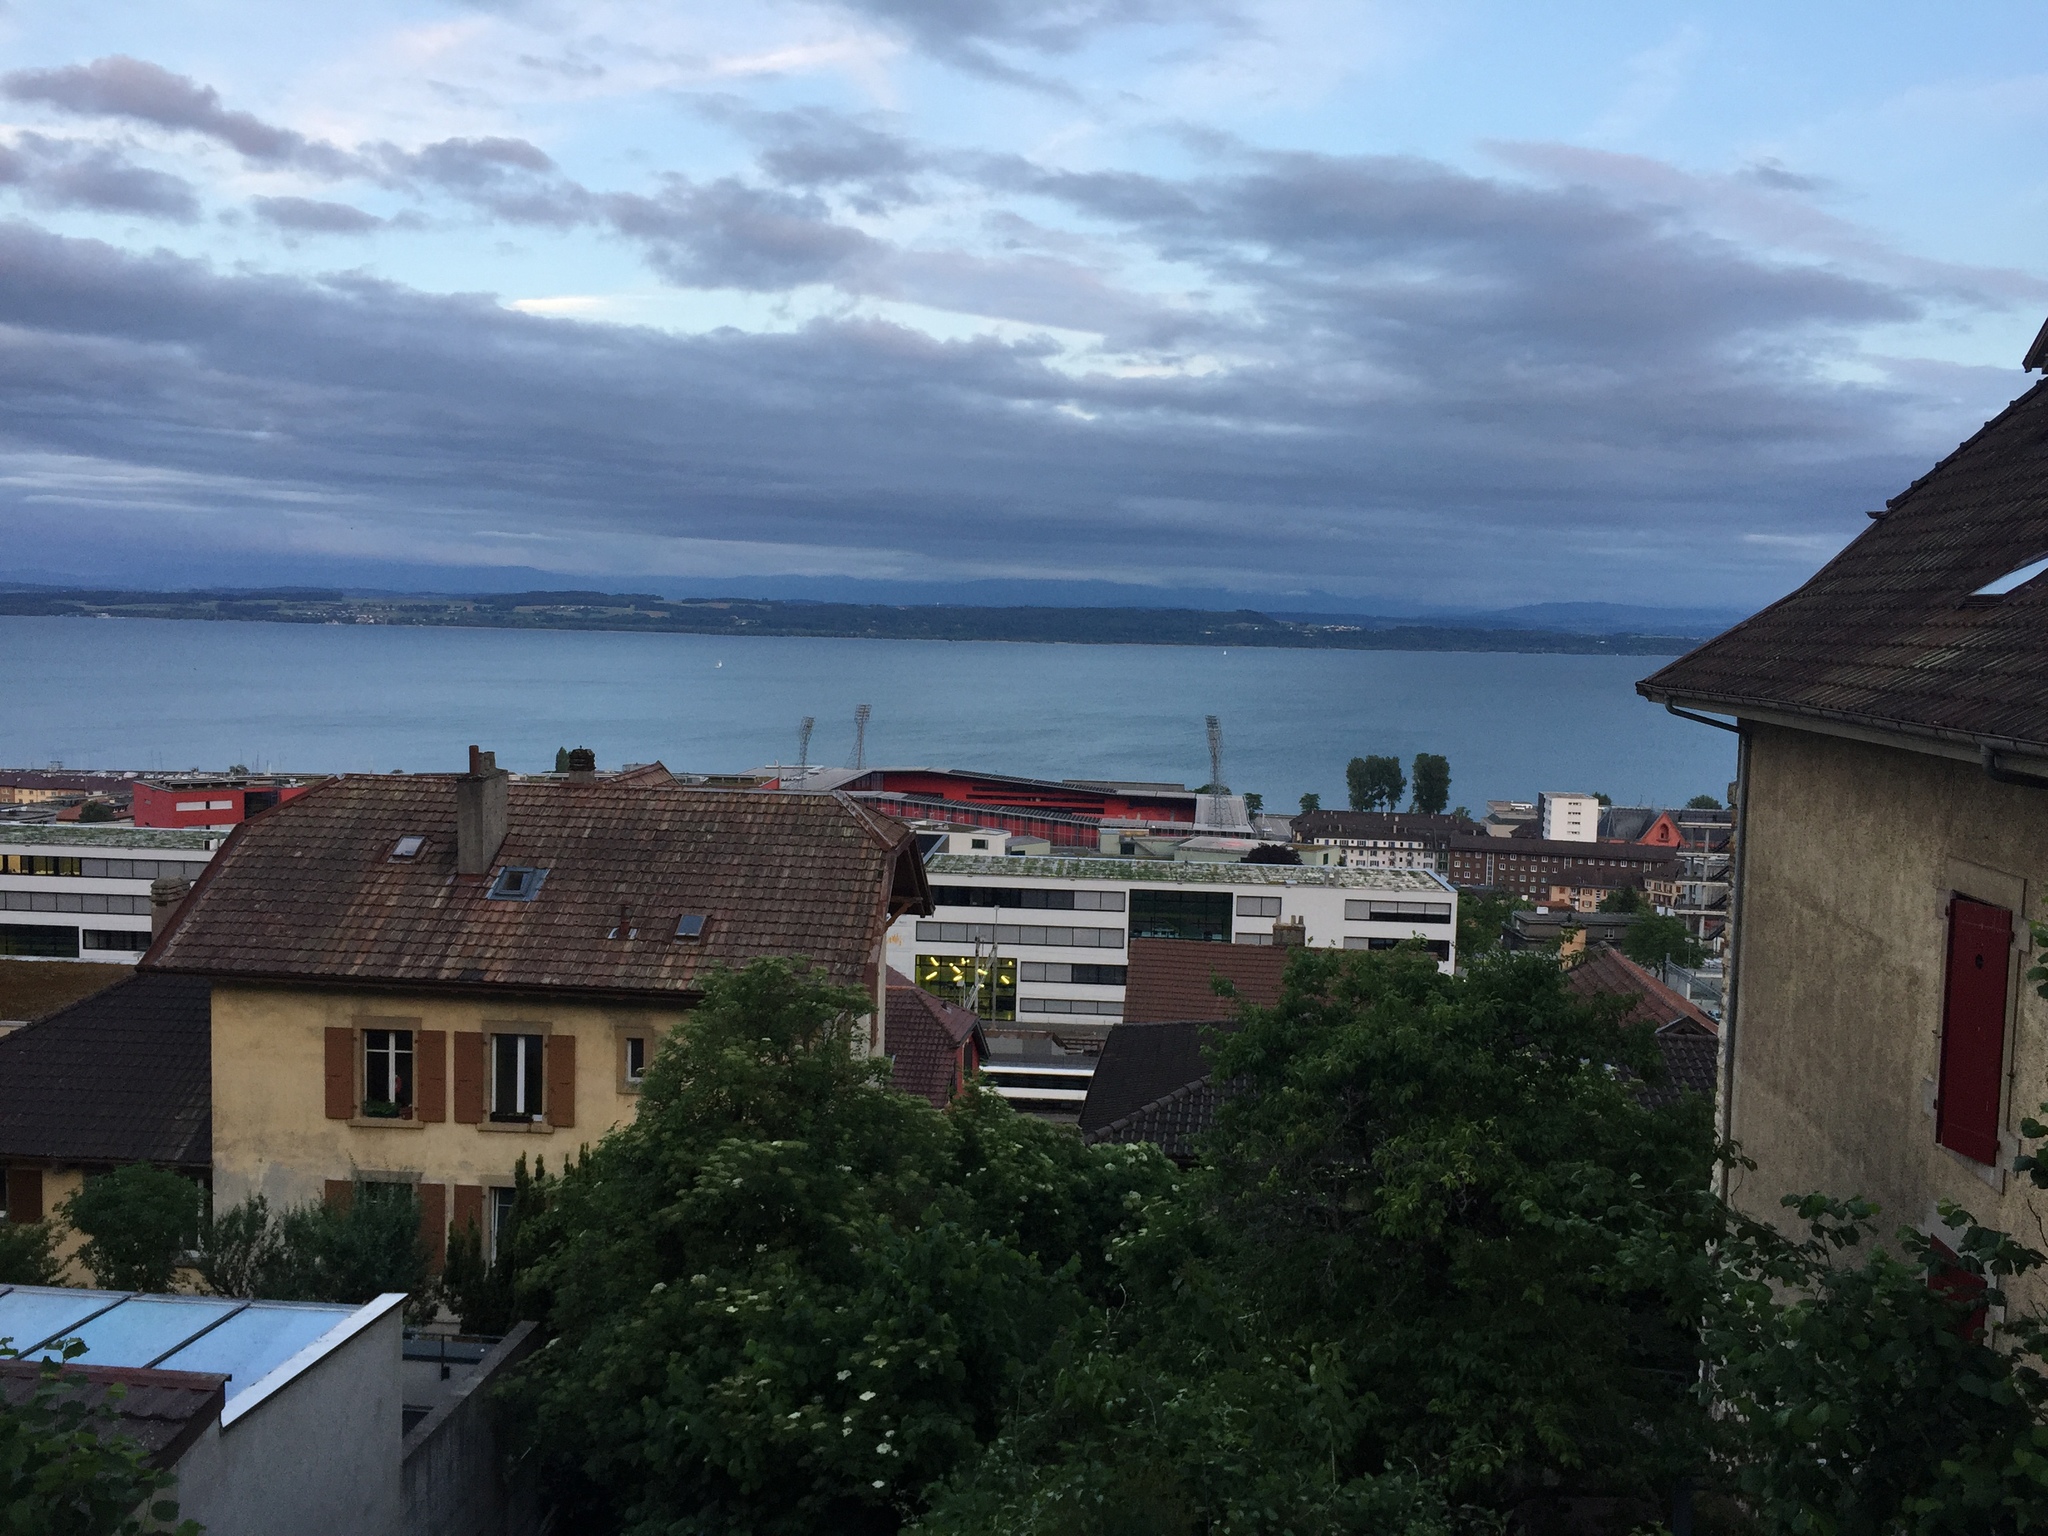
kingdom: Animalia
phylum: Chordata
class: Aves
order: Passeriformes
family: Sylviidae
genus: Sylvia
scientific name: Sylvia atricapilla
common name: Eurasian blackcap
